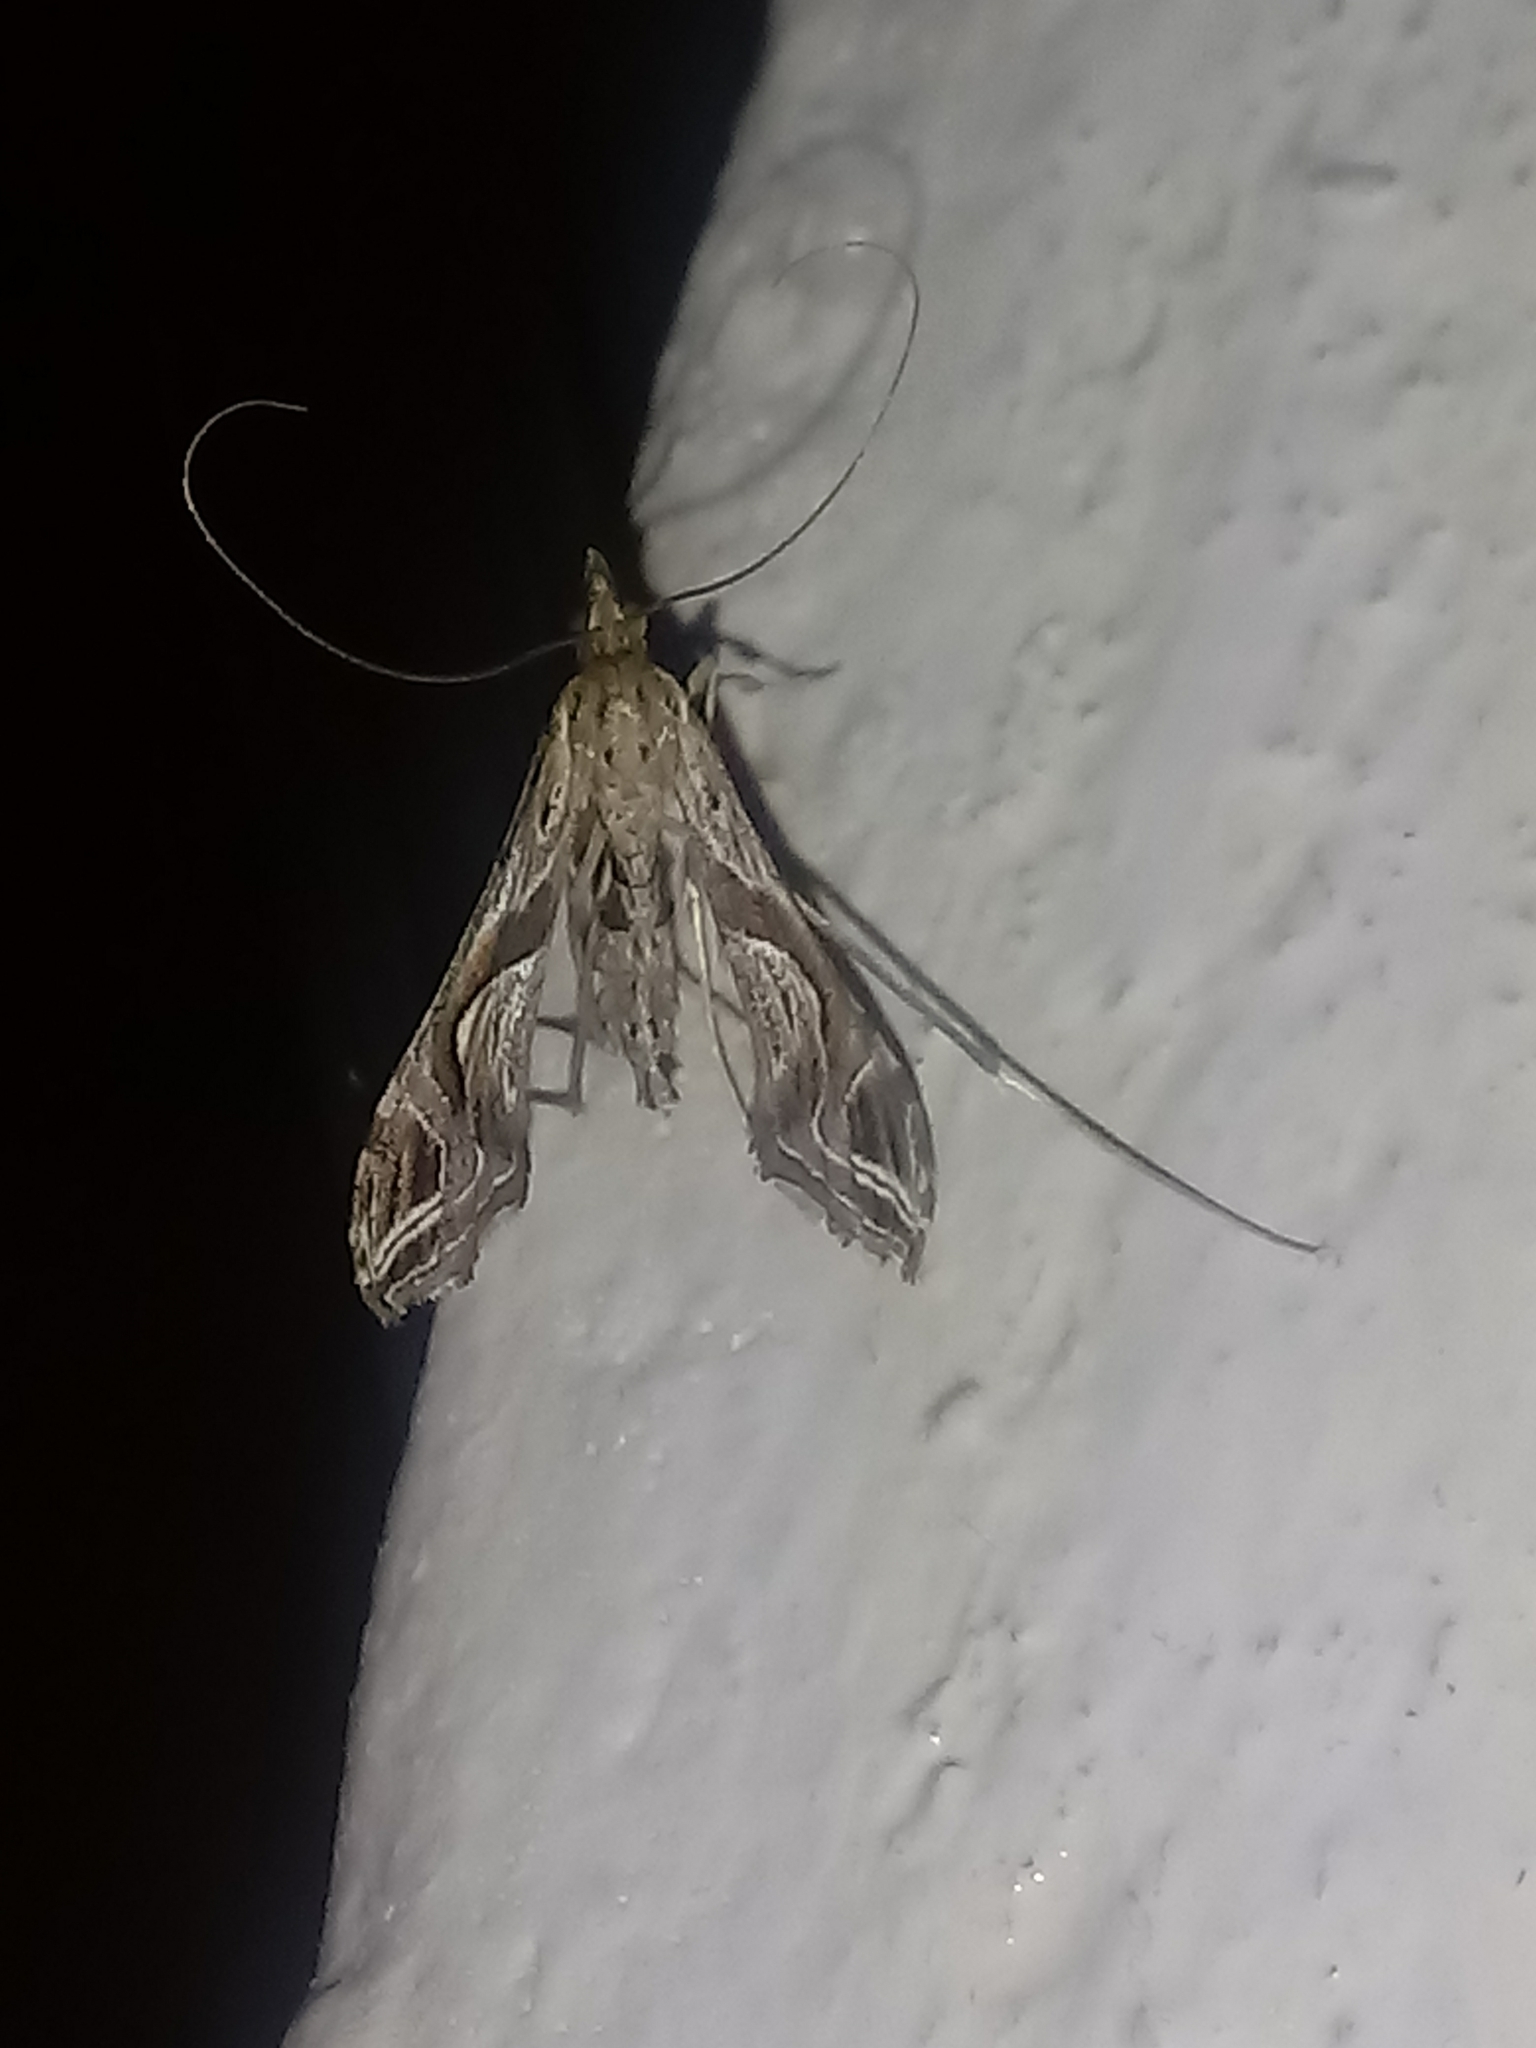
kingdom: Animalia
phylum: Arthropoda
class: Insecta
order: Lepidoptera
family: Crambidae
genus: Lineodes
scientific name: Lineodes integra
